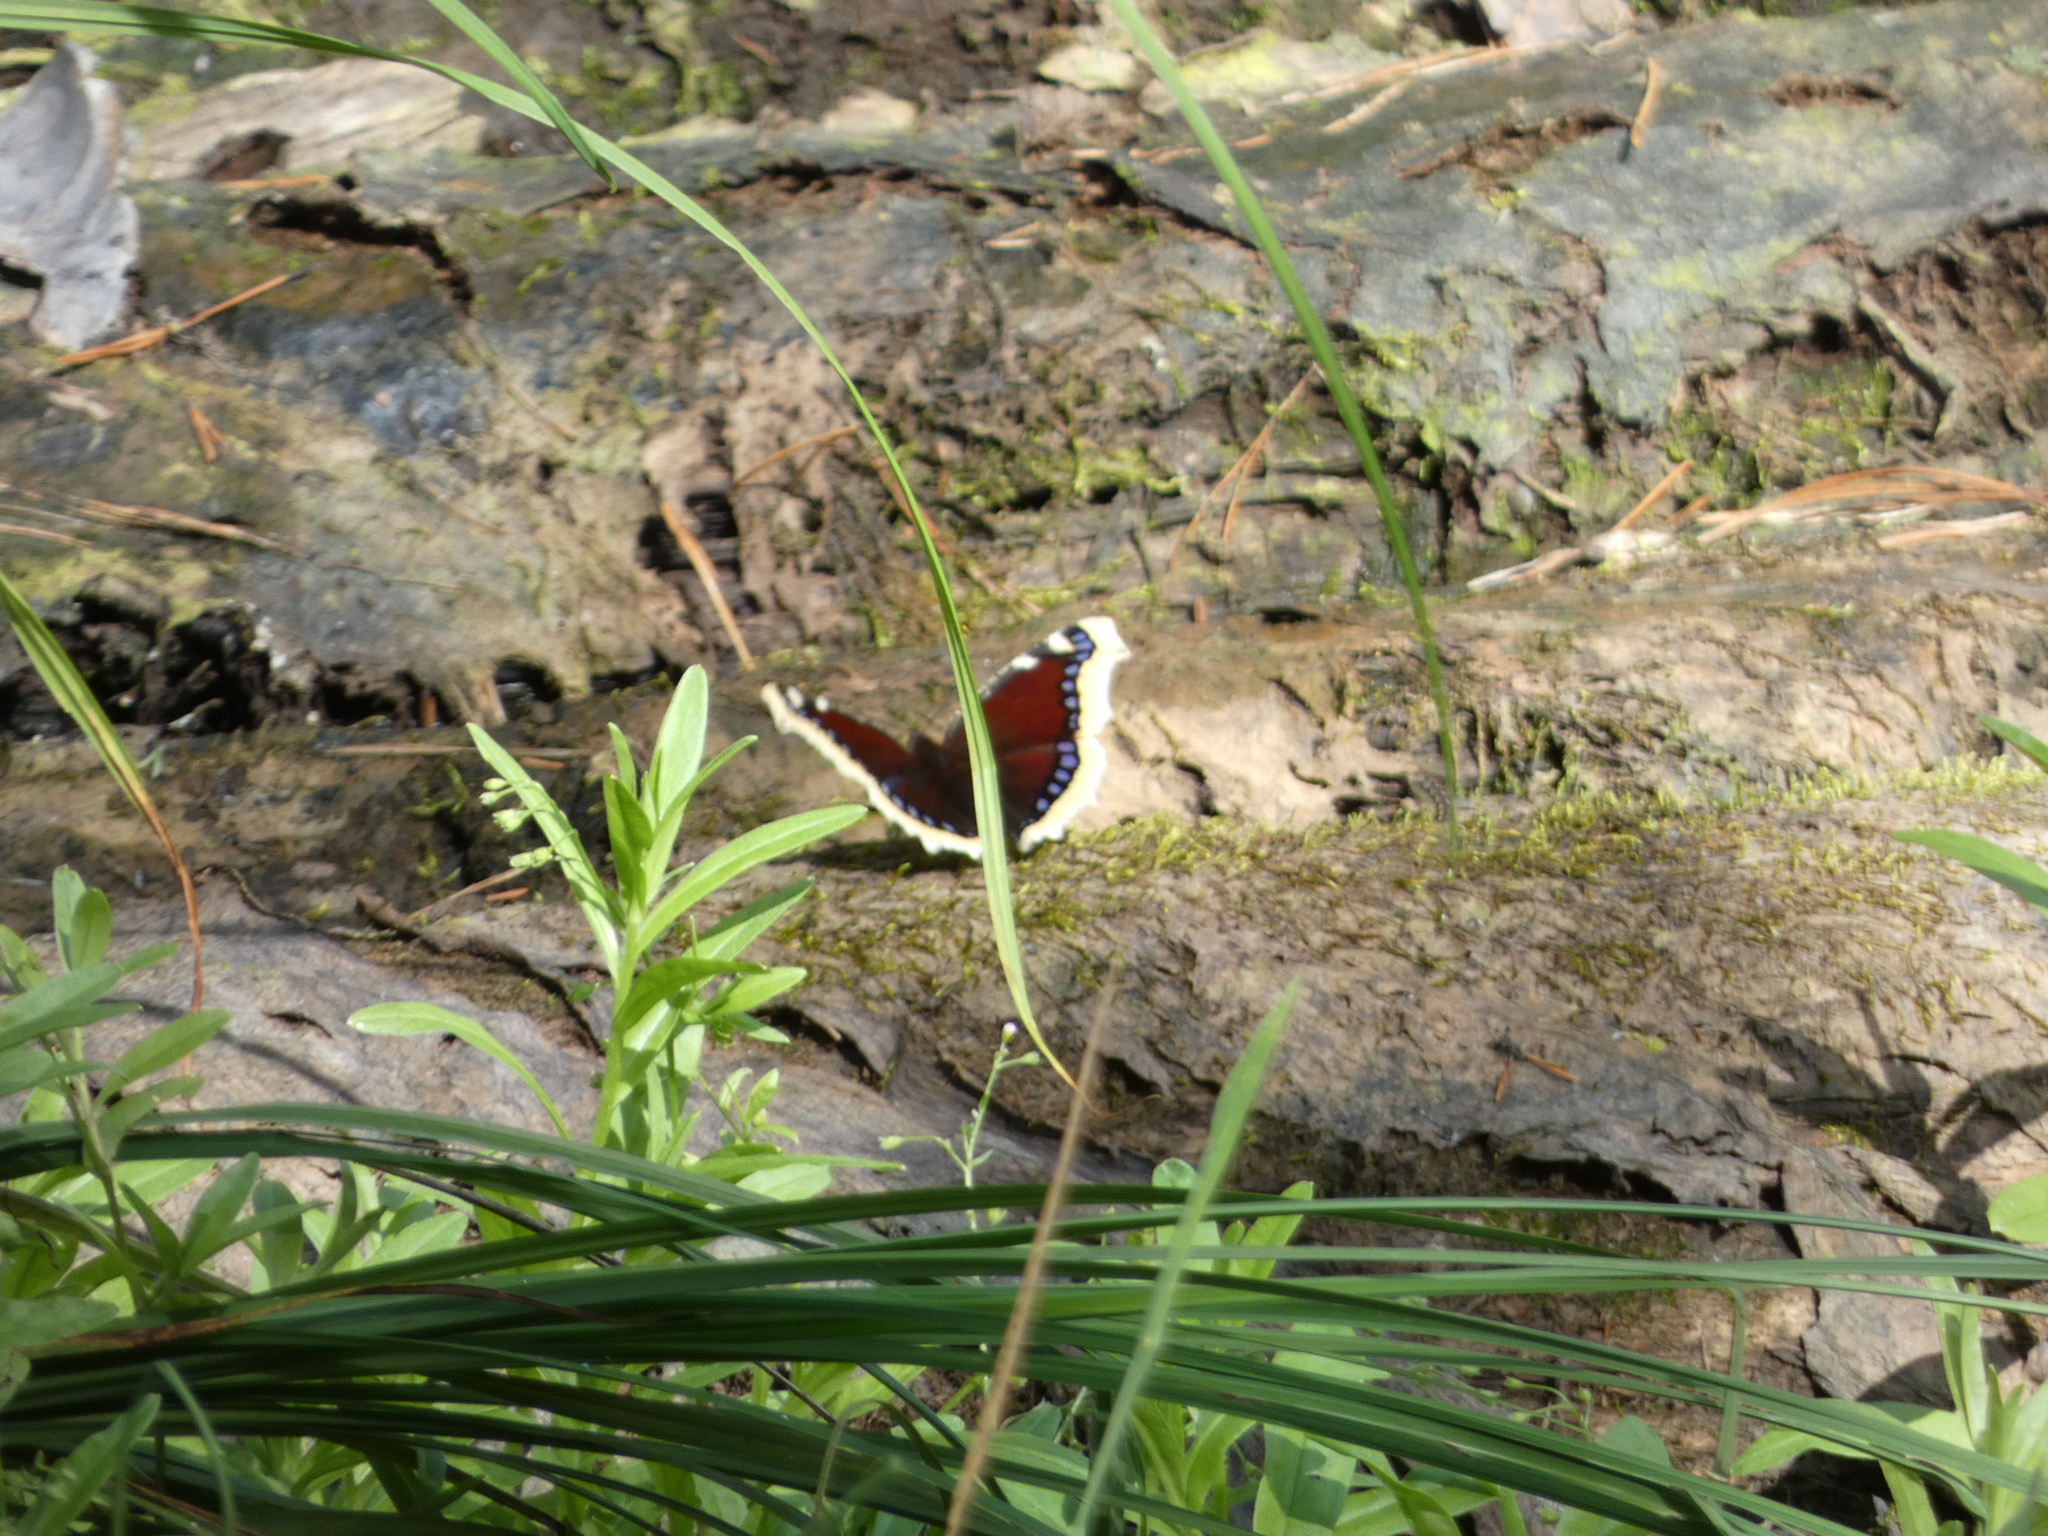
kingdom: Animalia
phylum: Arthropoda
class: Insecta
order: Lepidoptera
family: Nymphalidae
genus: Nymphalis
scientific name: Nymphalis antiopa
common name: Camberwell beauty
